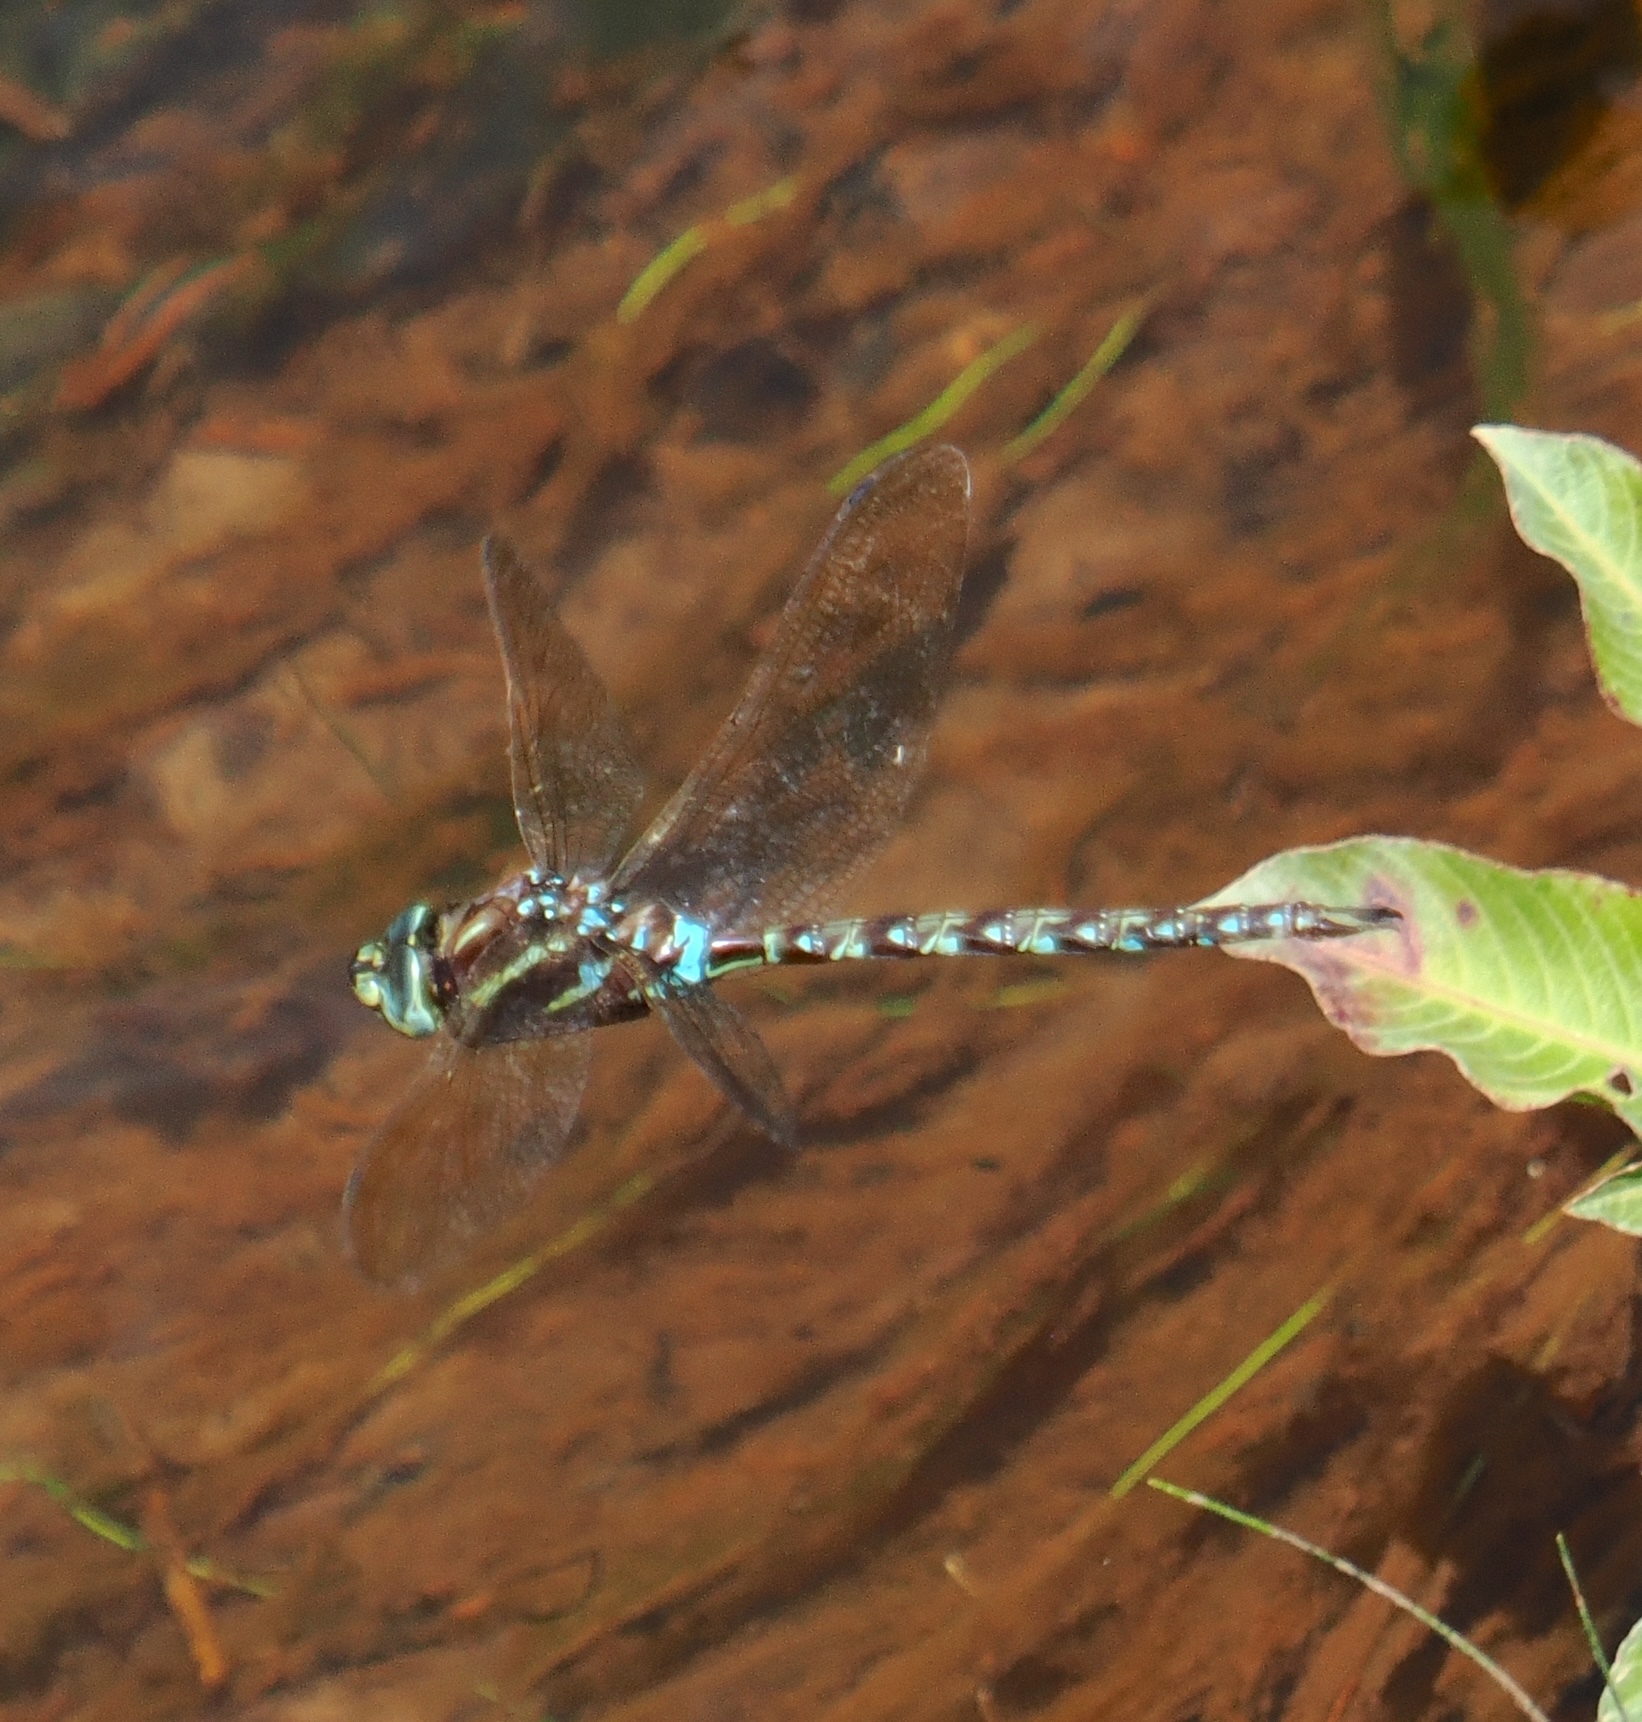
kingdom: Animalia
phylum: Arthropoda
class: Insecta
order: Odonata
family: Aeshnidae
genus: Rhionaeschna
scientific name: Rhionaeschna itatiaia
